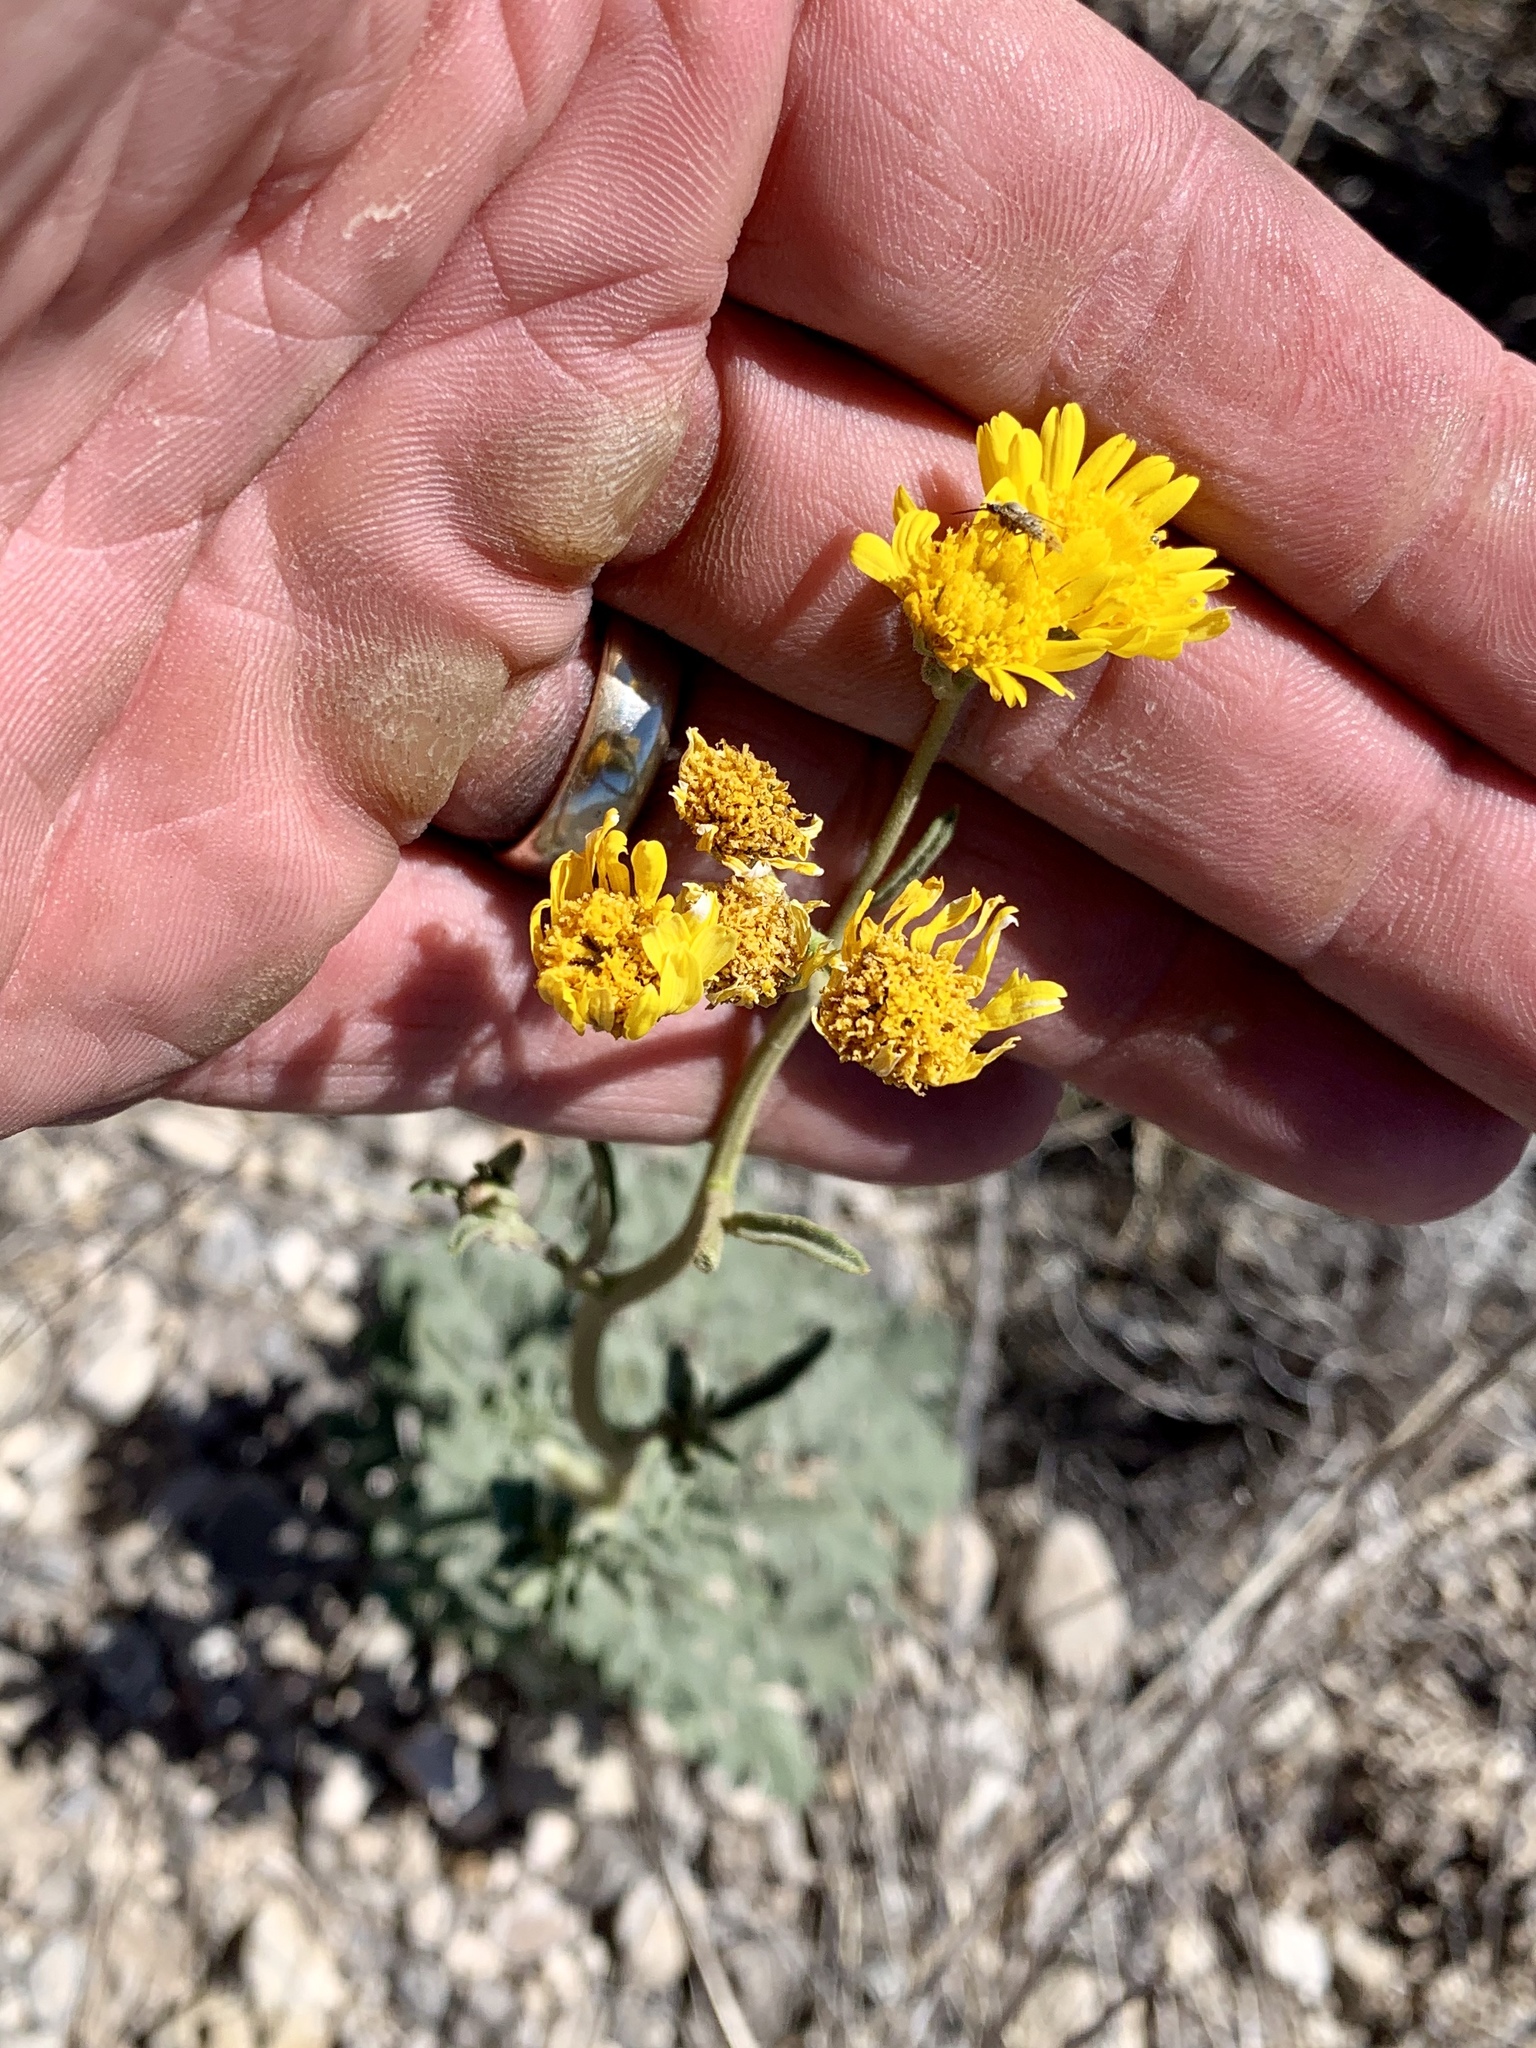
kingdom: Plantae
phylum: Tracheophyta
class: Magnoliopsida
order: Asterales
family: Asteraceae
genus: Hymenothrix
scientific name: Hymenothrix dissecta
